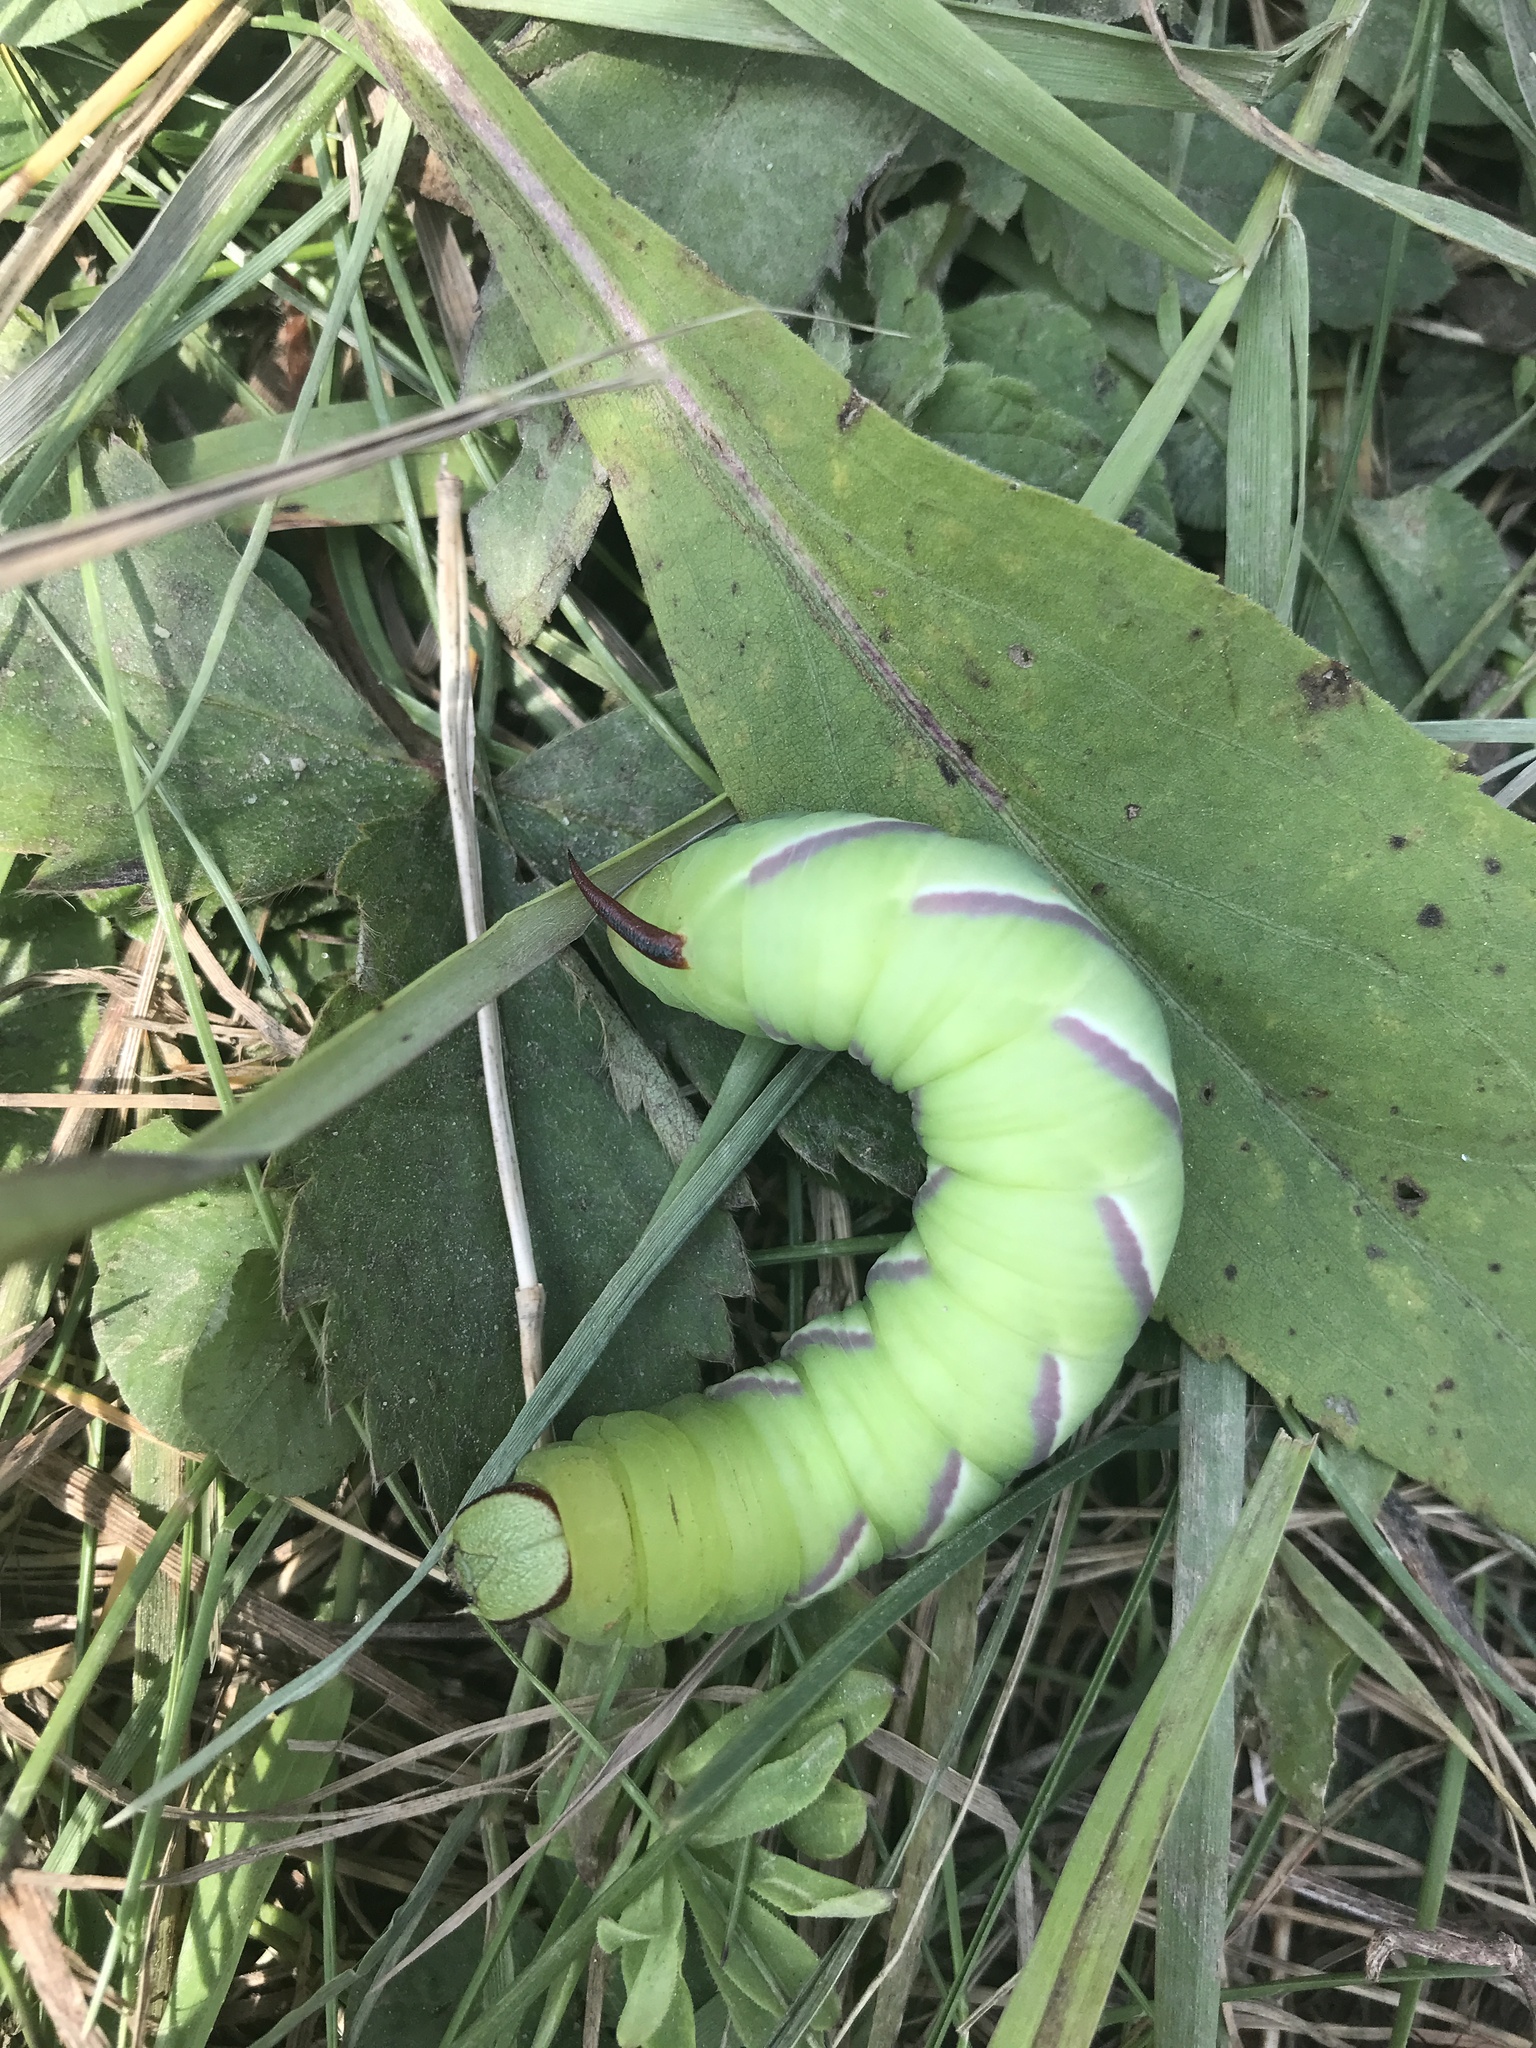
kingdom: Animalia
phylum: Arthropoda
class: Insecta
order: Lepidoptera
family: Sphingidae
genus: Sphinx
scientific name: Sphinx drupiferarum
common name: Wild cherry sphinx
